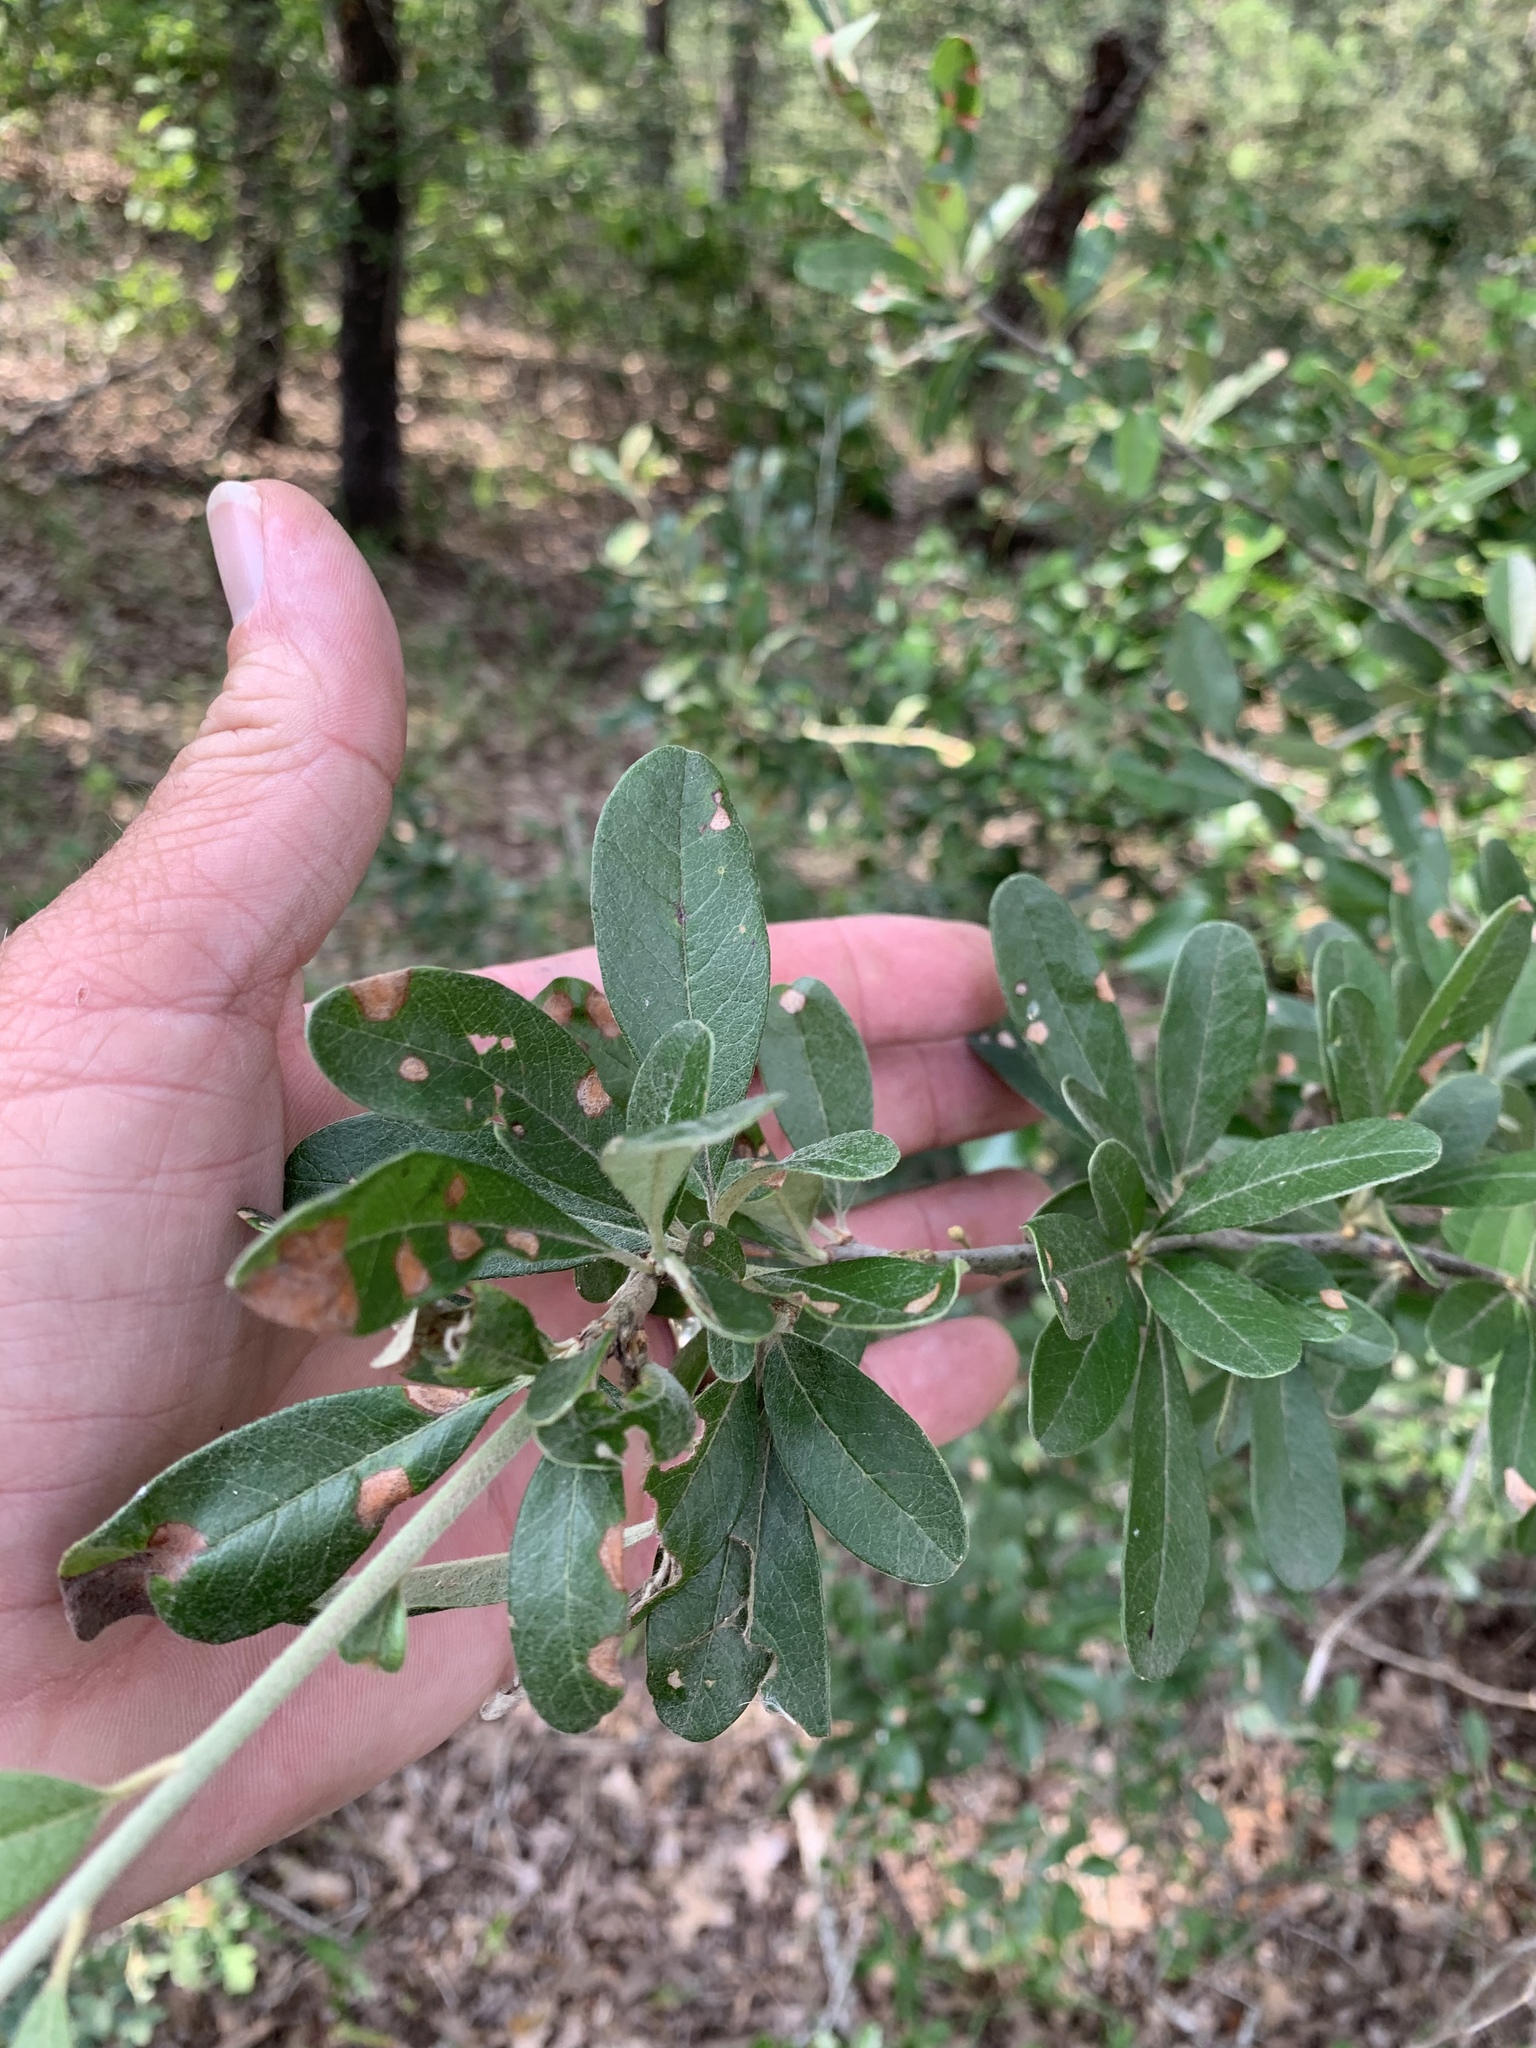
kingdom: Plantae
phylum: Tracheophyta
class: Magnoliopsida
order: Ericales
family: Sapotaceae
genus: Sideroxylon
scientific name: Sideroxylon lanuginosum
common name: Chittamwood
